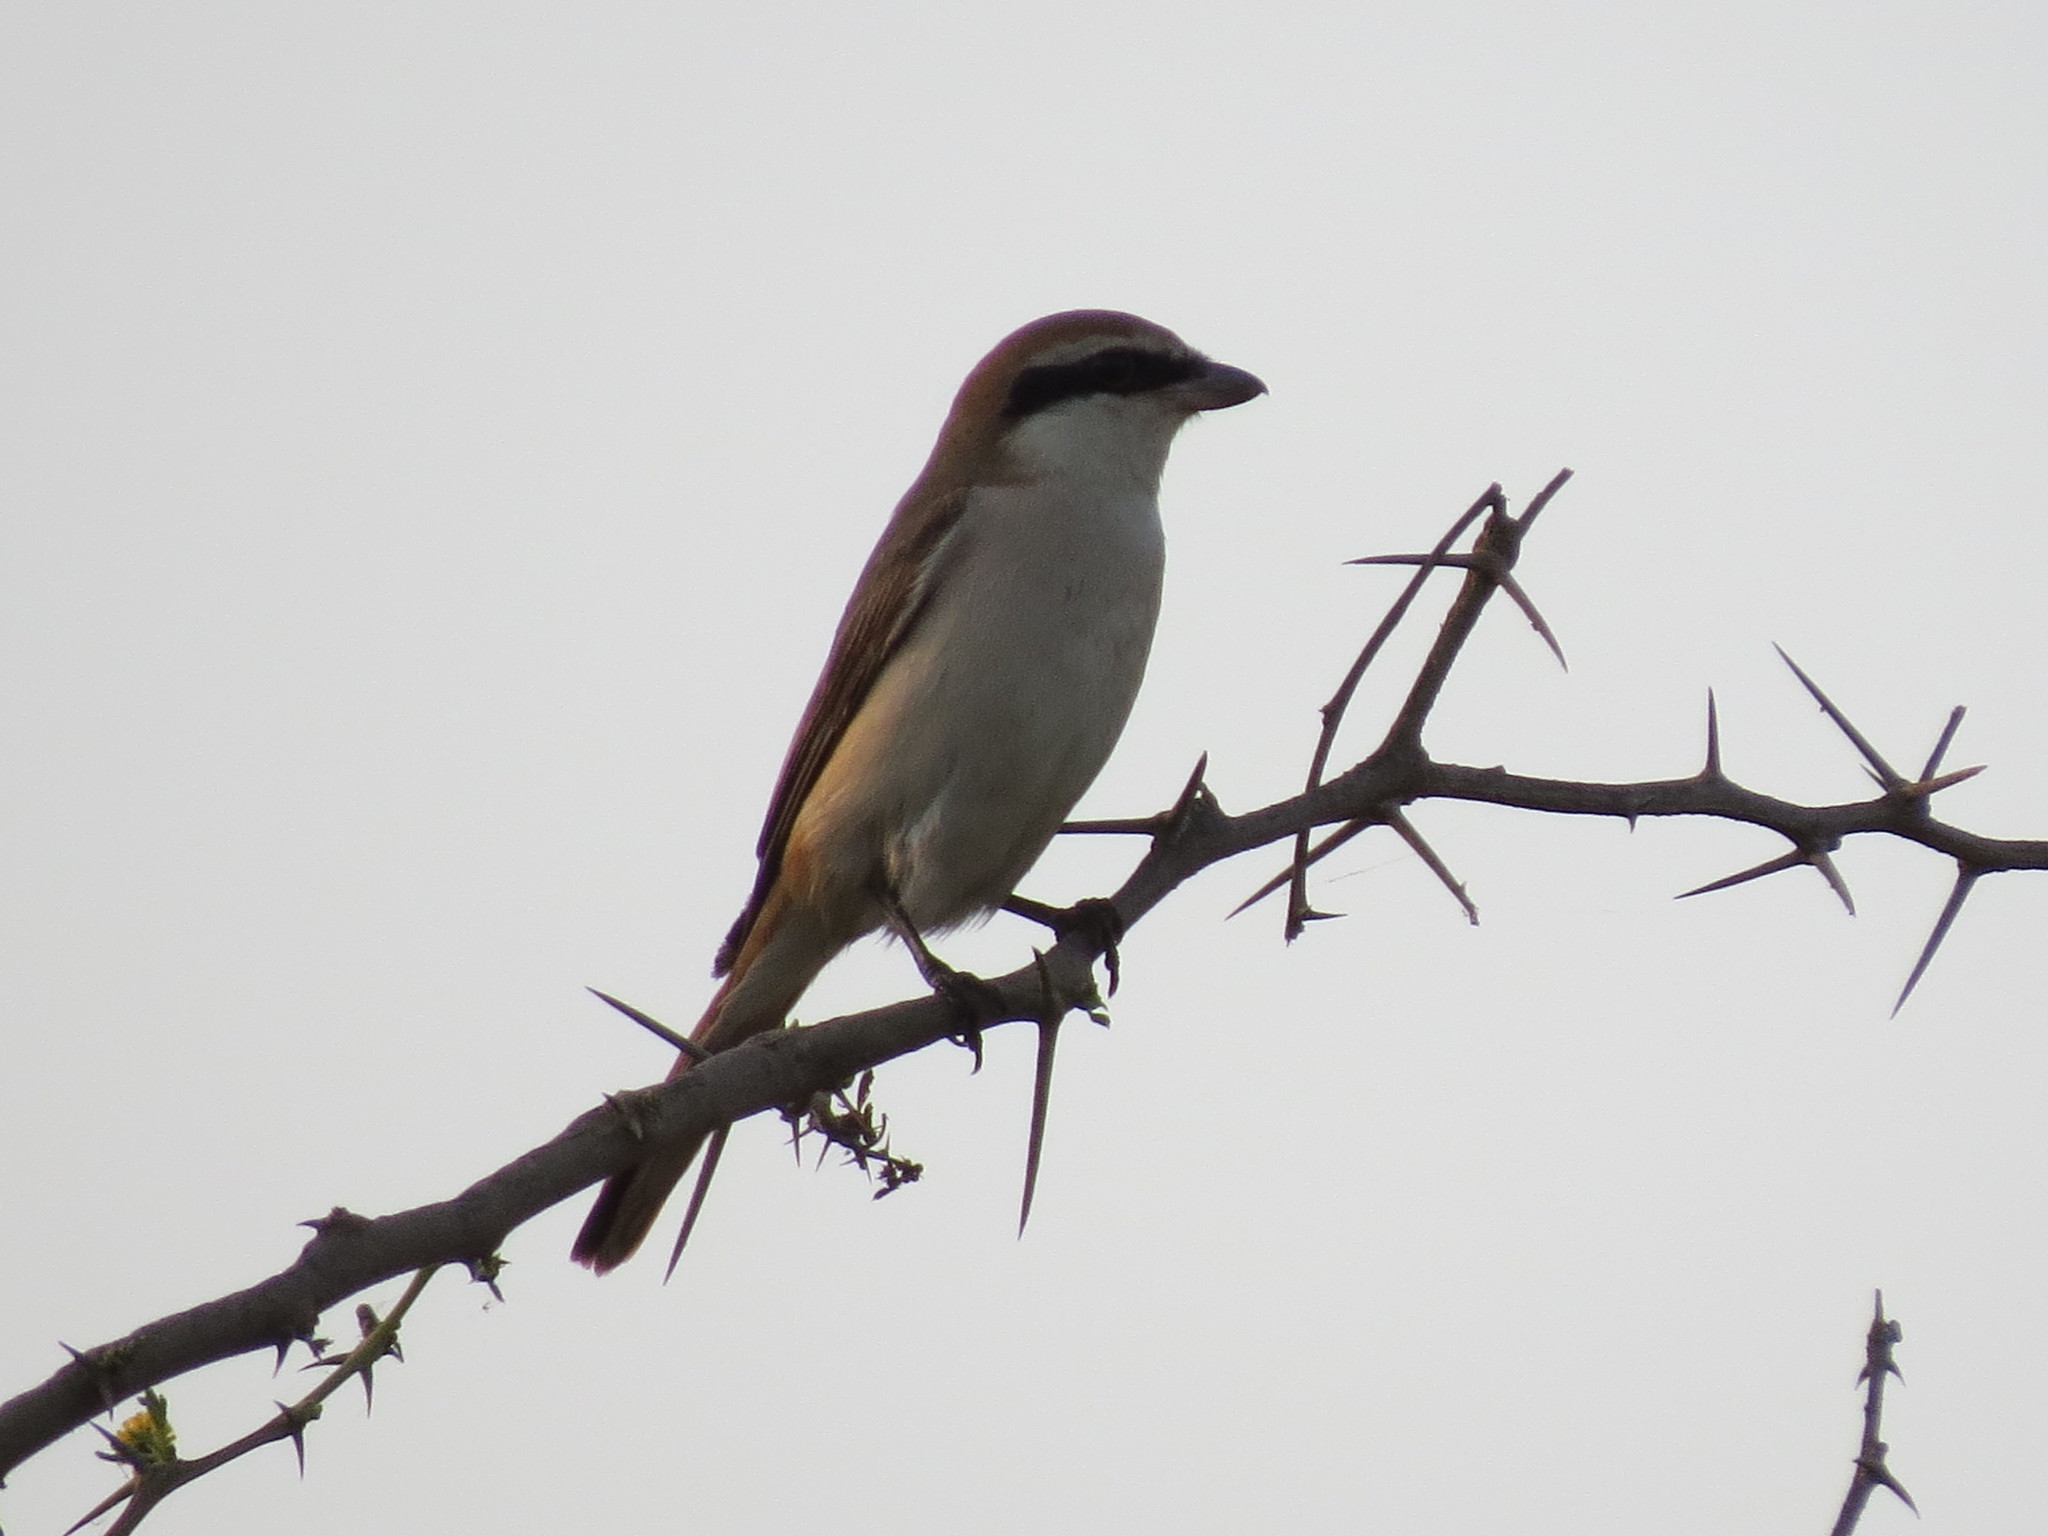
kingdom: Animalia
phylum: Chordata
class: Aves
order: Passeriformes
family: Laniidae
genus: Lanius
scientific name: Lanius cristatus
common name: Brown shrike
